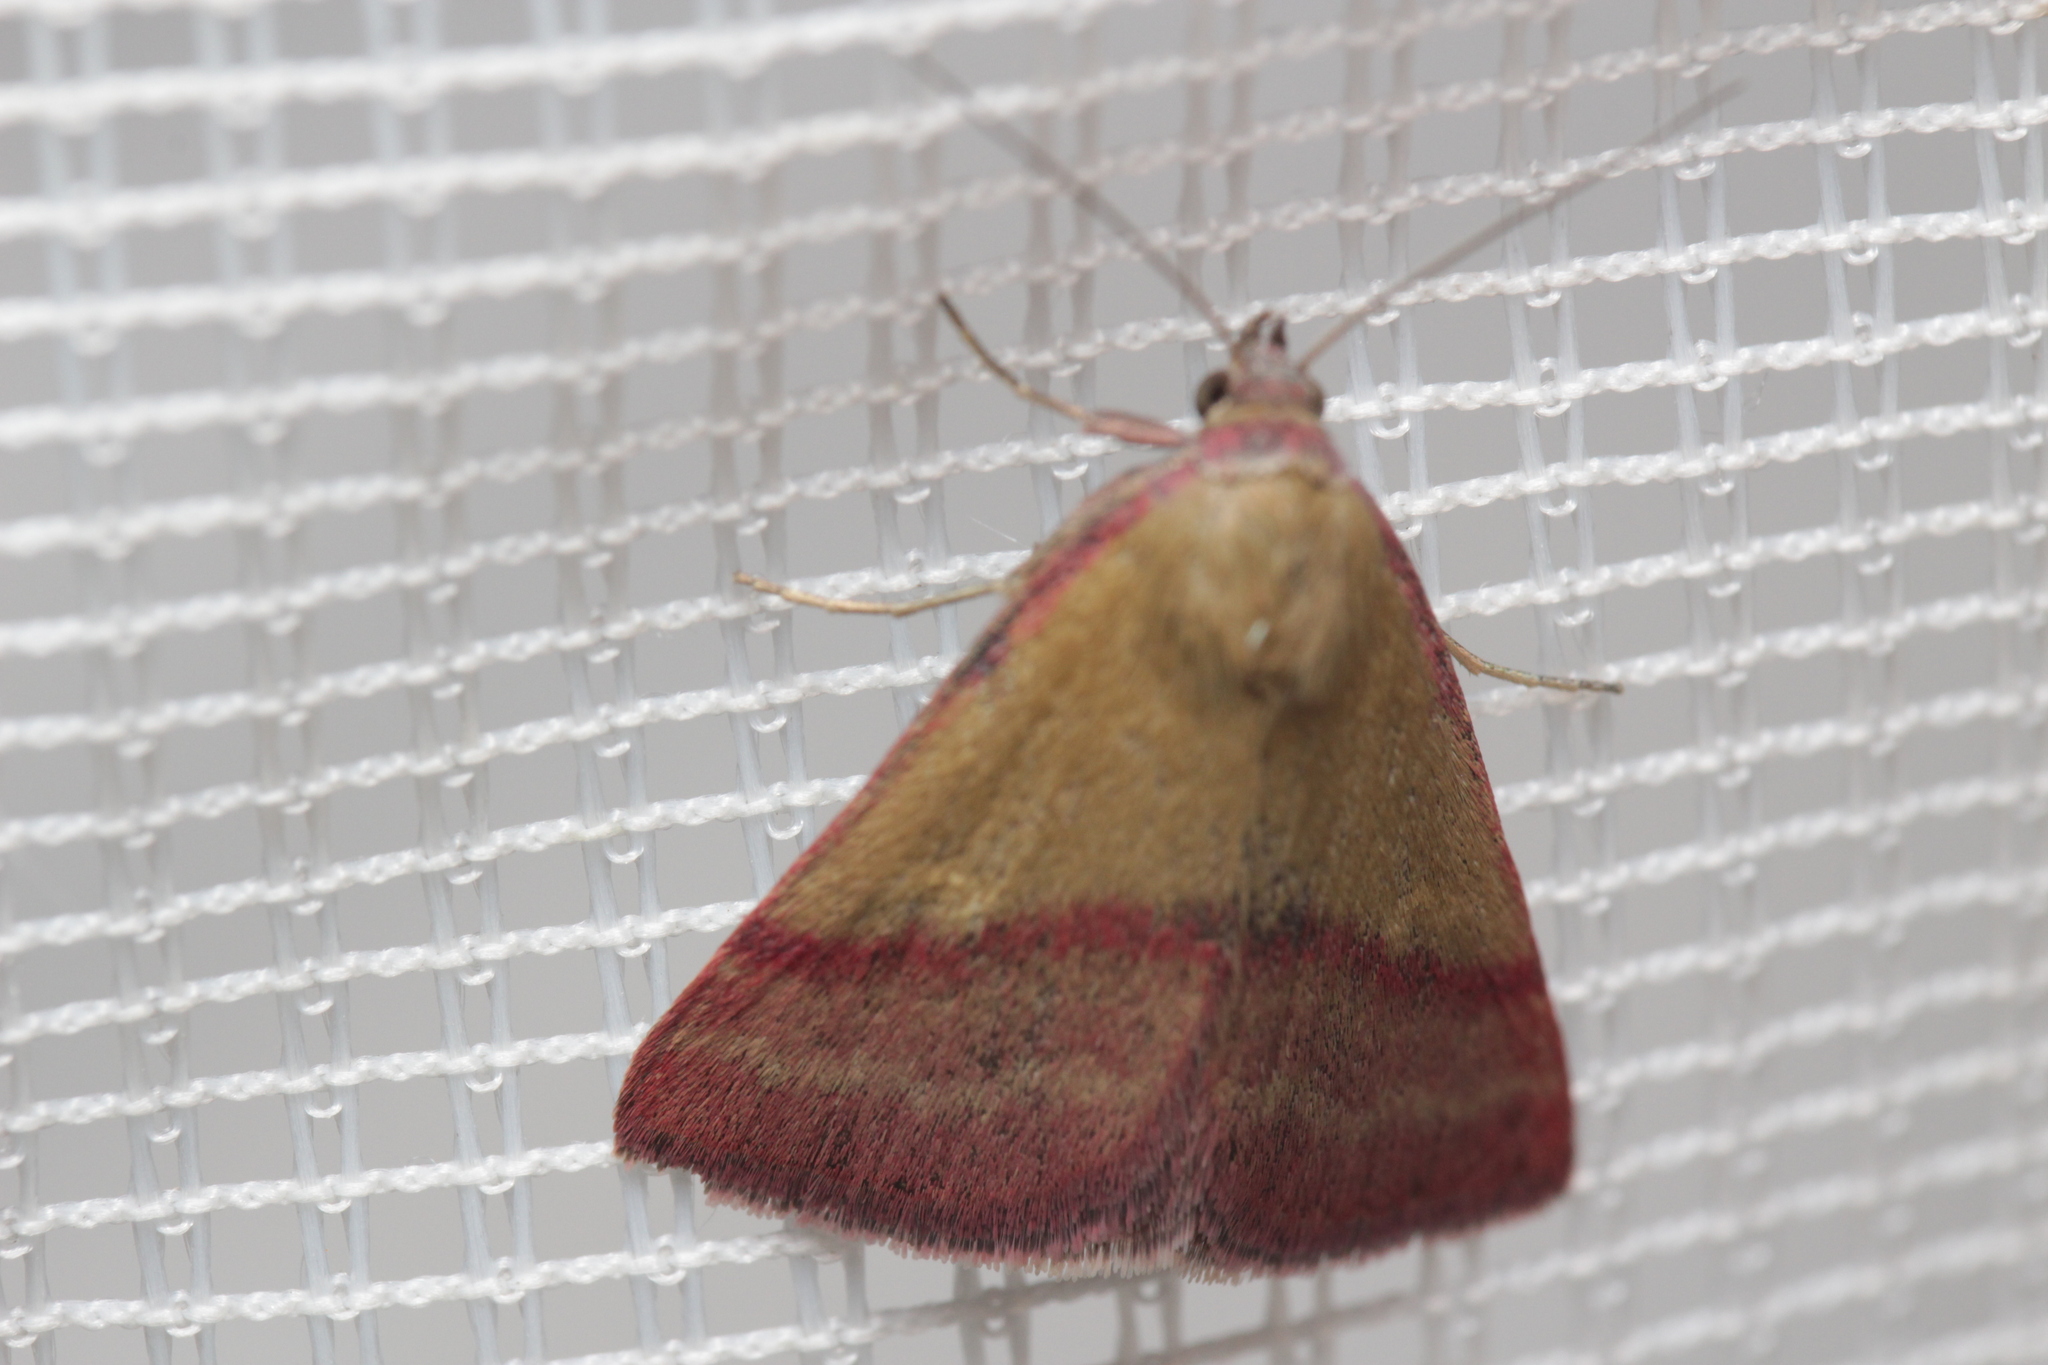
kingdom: Animalia
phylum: Arthropoda
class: Insecta
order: Lepidoptera
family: Erebidae
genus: Phytometra
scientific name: Phytometra viridaria
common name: Small purple-barred
